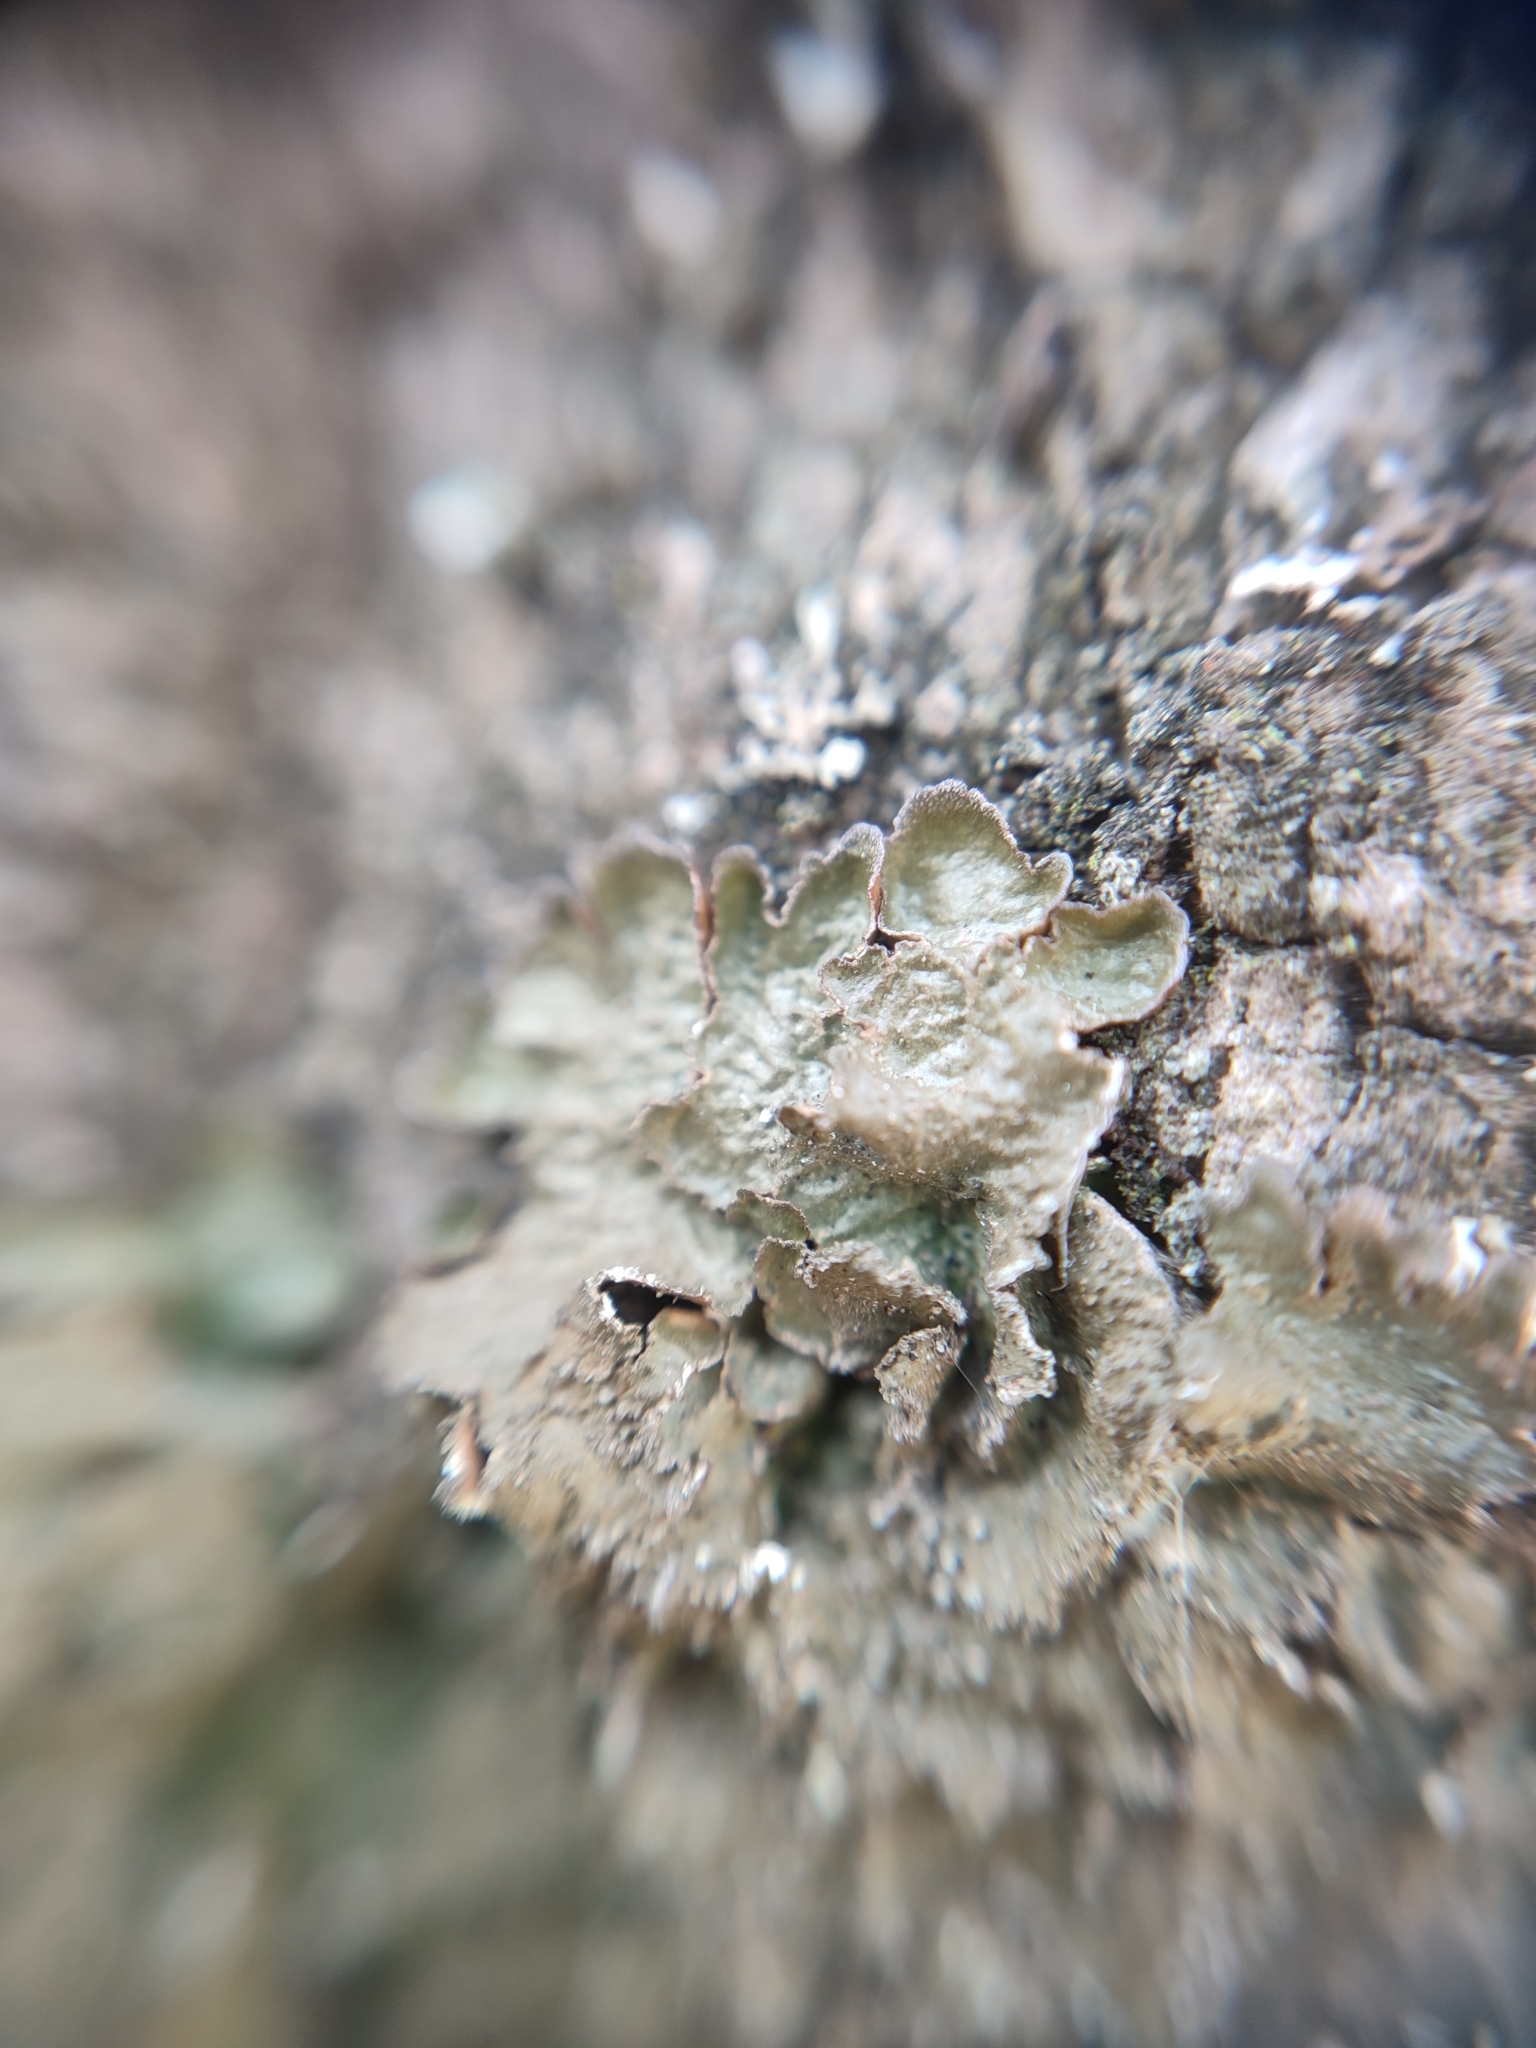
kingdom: Fungi
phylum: Ascomycota
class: Lecanoromycetes
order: Lecanorales
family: Parmeliaceae
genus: Melanelixia
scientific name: Melanelixia subargentifera
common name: Whiskered camouflage lichen
